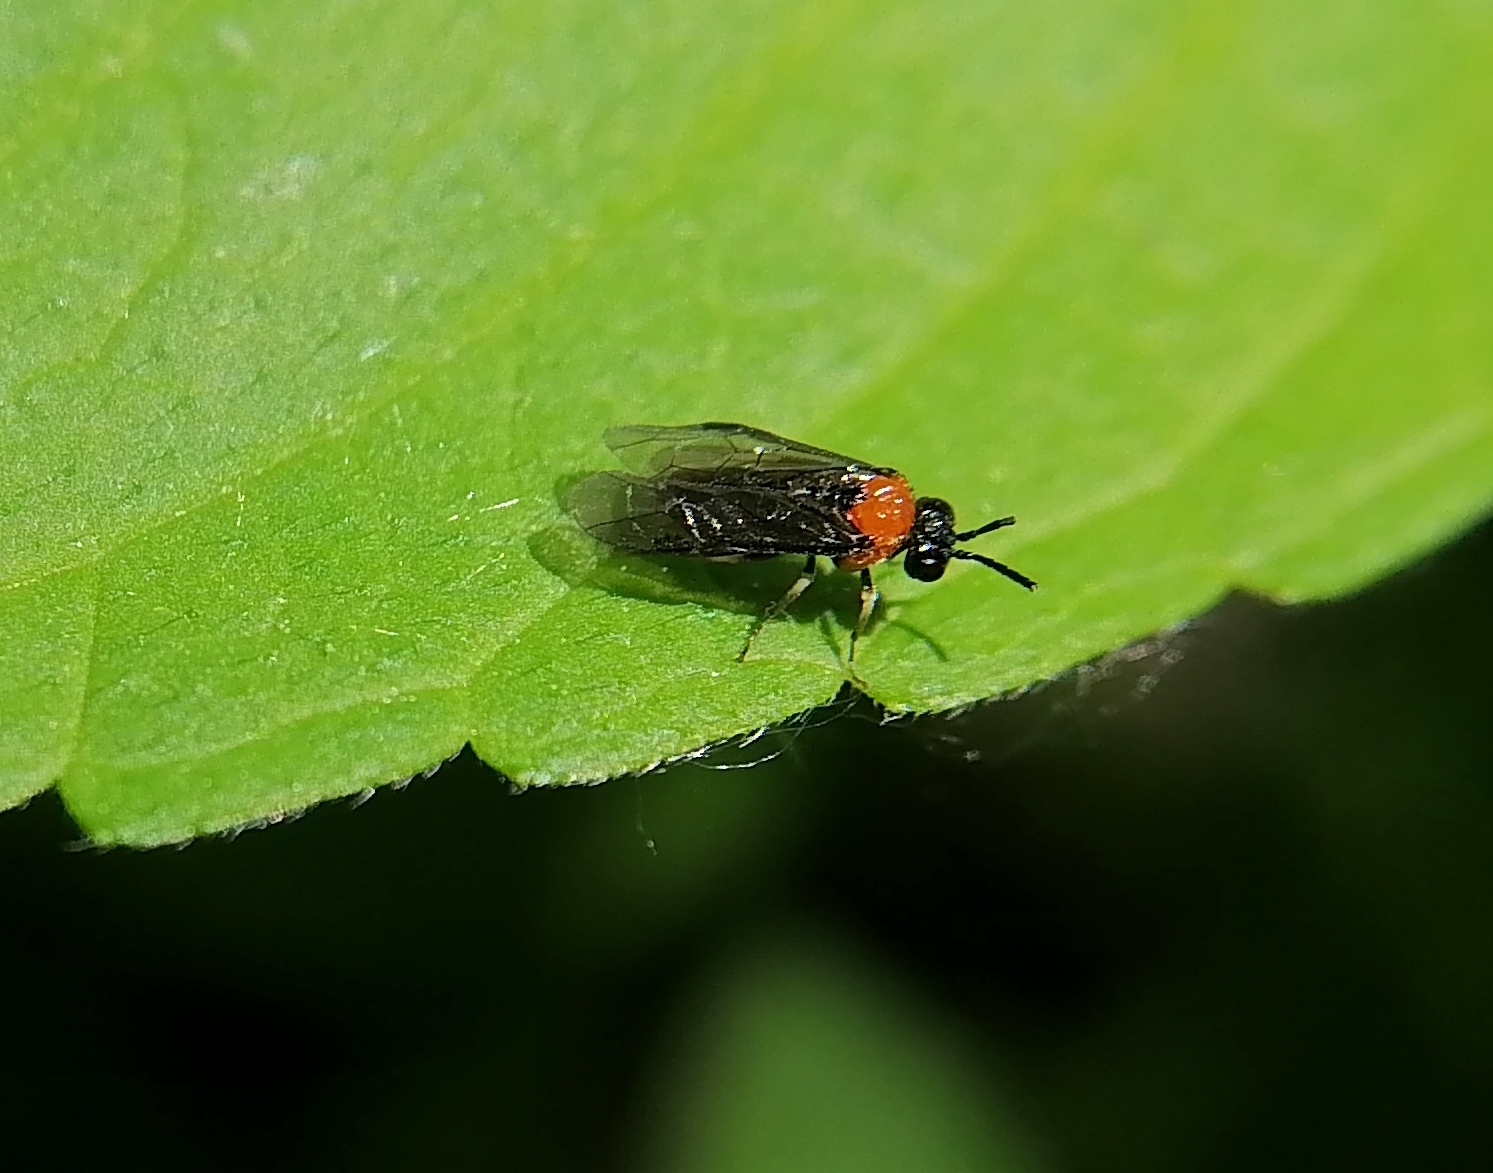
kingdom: Animalia
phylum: Arthropoda
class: Insecta
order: Hymenoptera
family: Tenthredinidae
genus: Eutomostethus
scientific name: Eutomostethus ephippium
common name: Tenthredid wasp
